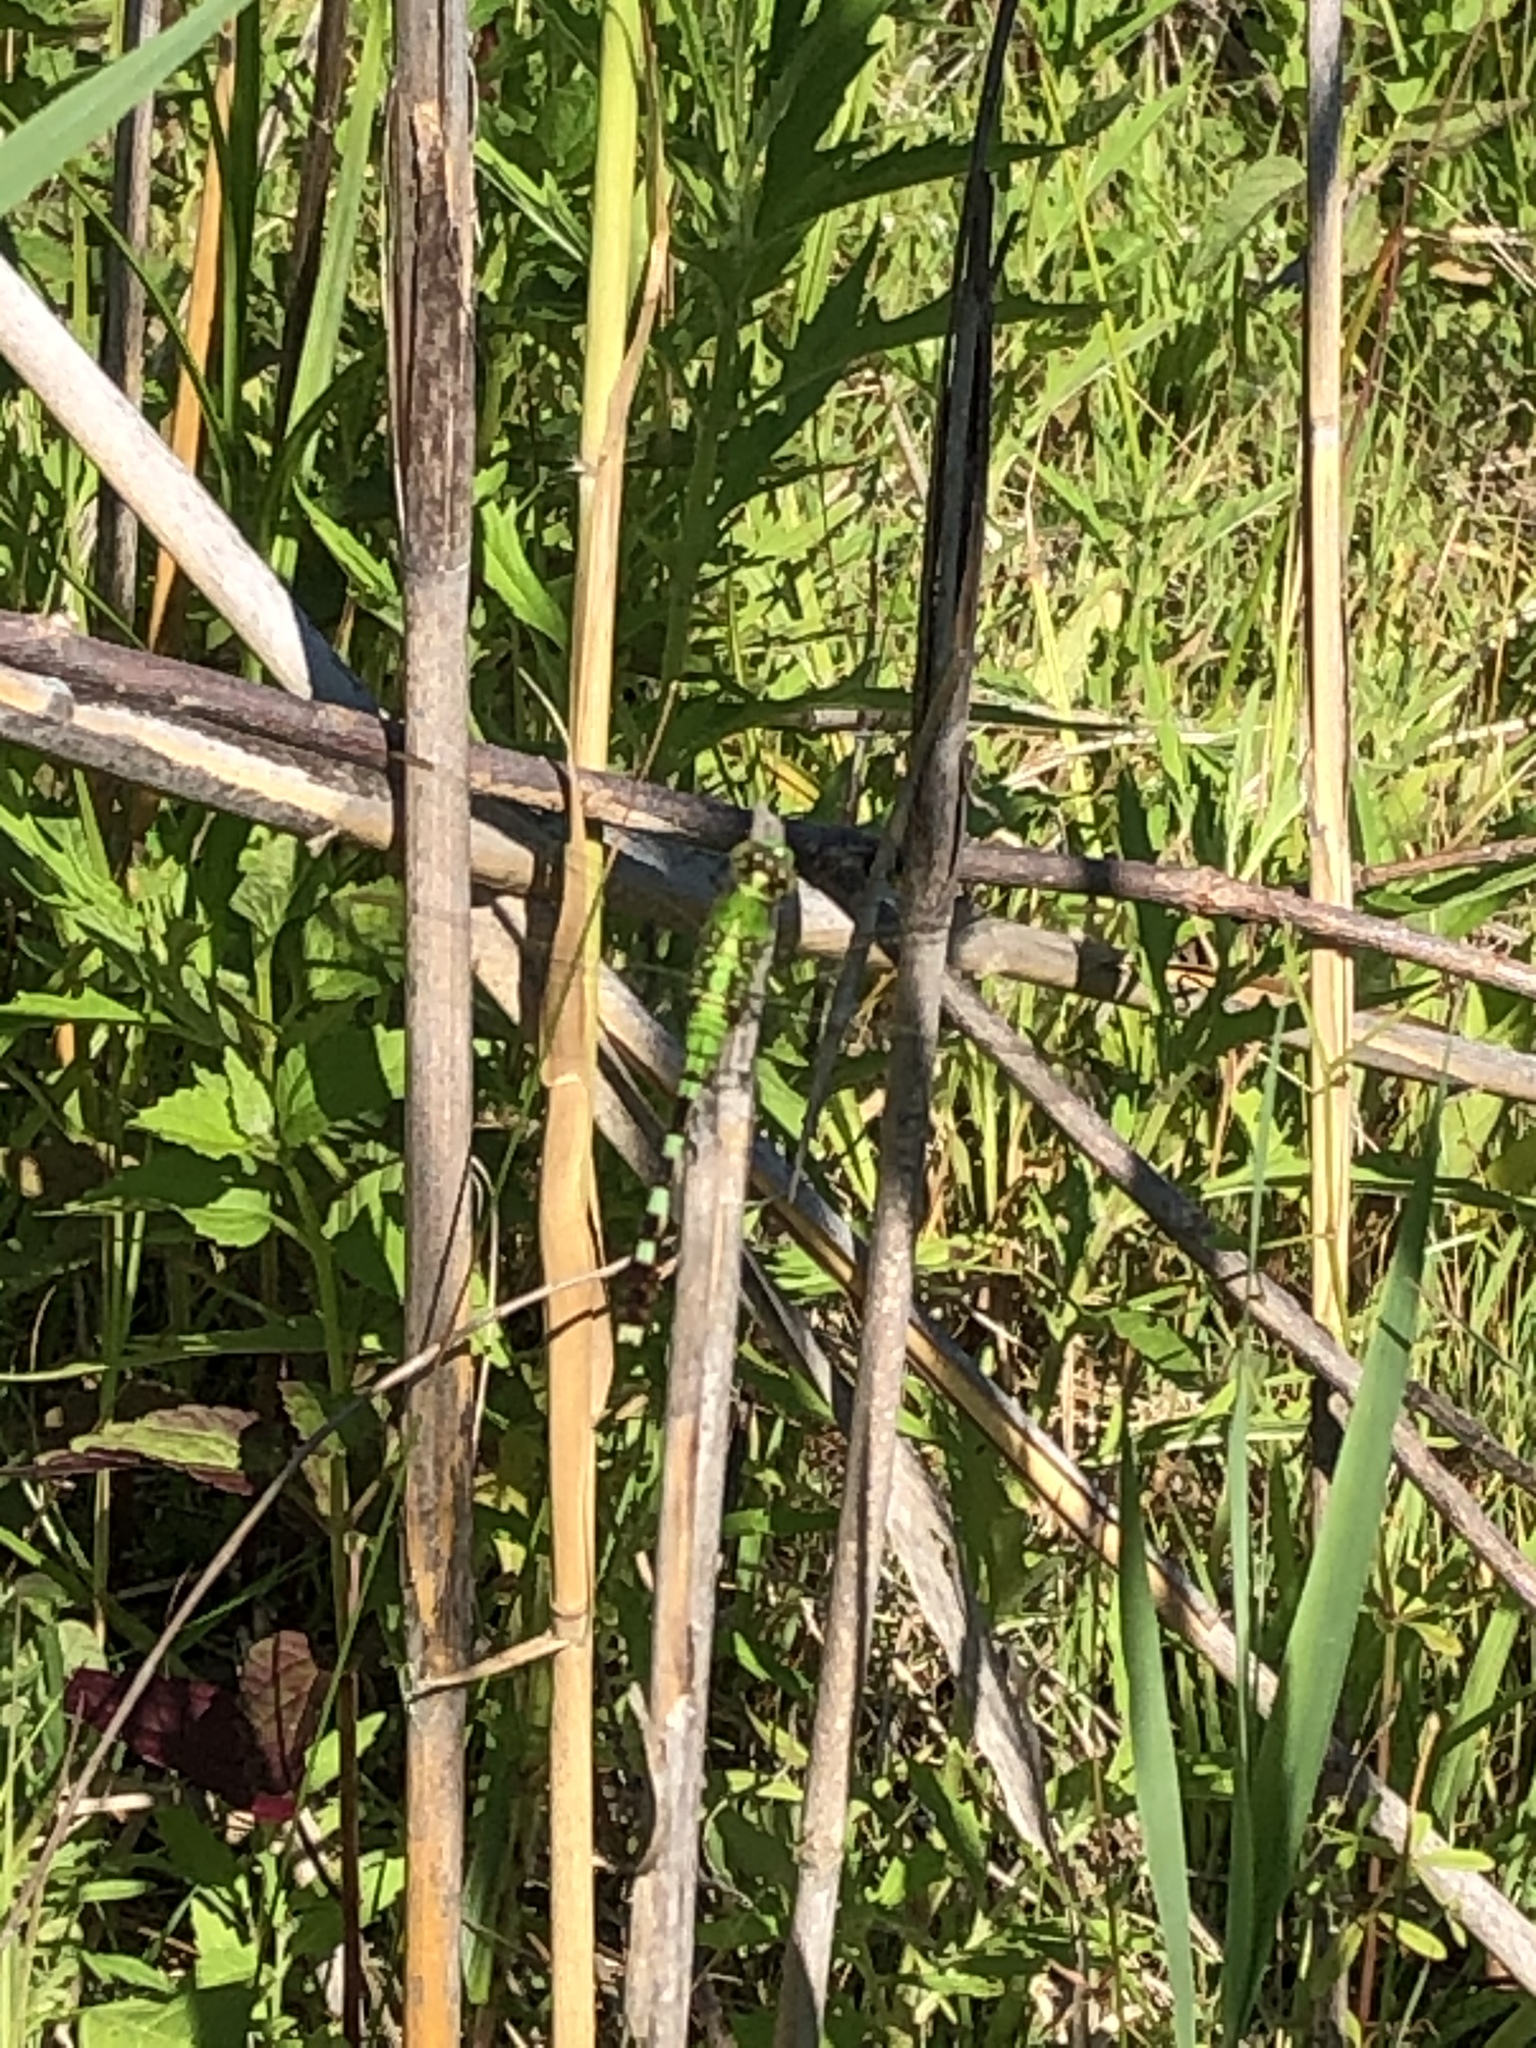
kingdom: Animalia
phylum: Arthropoda
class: Insecta
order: Odonata
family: Libellulidae
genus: Erythemis
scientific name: Erythemis simplicicollis
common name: Eastern pondhawk
